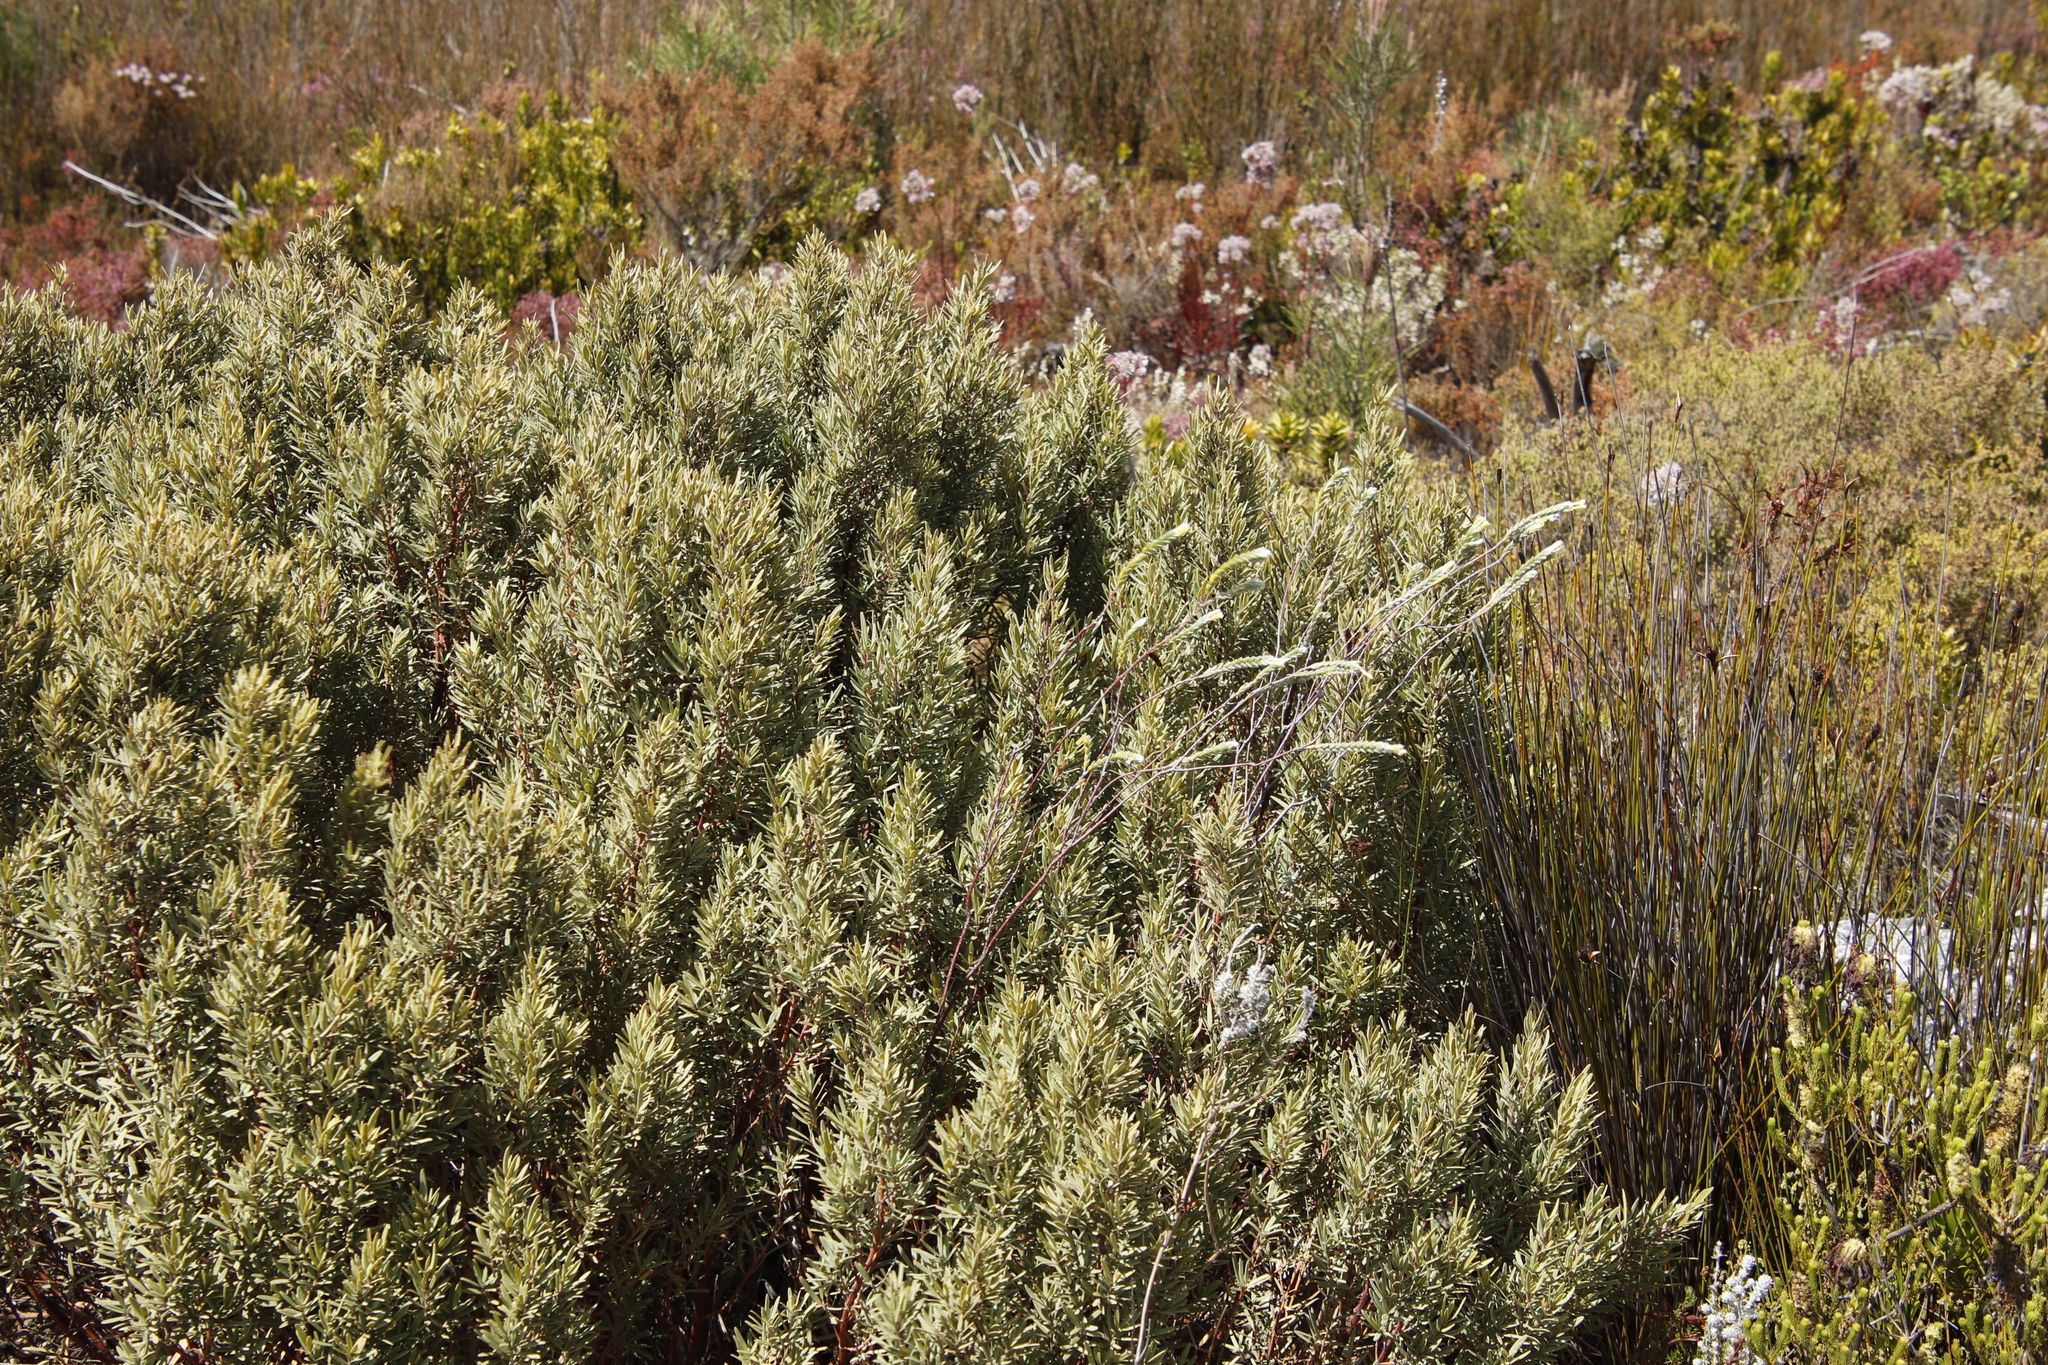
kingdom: Plantae
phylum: Tracheophyta
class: Magnoliopsida
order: Cornales
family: Grubbiaceae
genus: Grubbia
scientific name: Grubbia tomentosa
